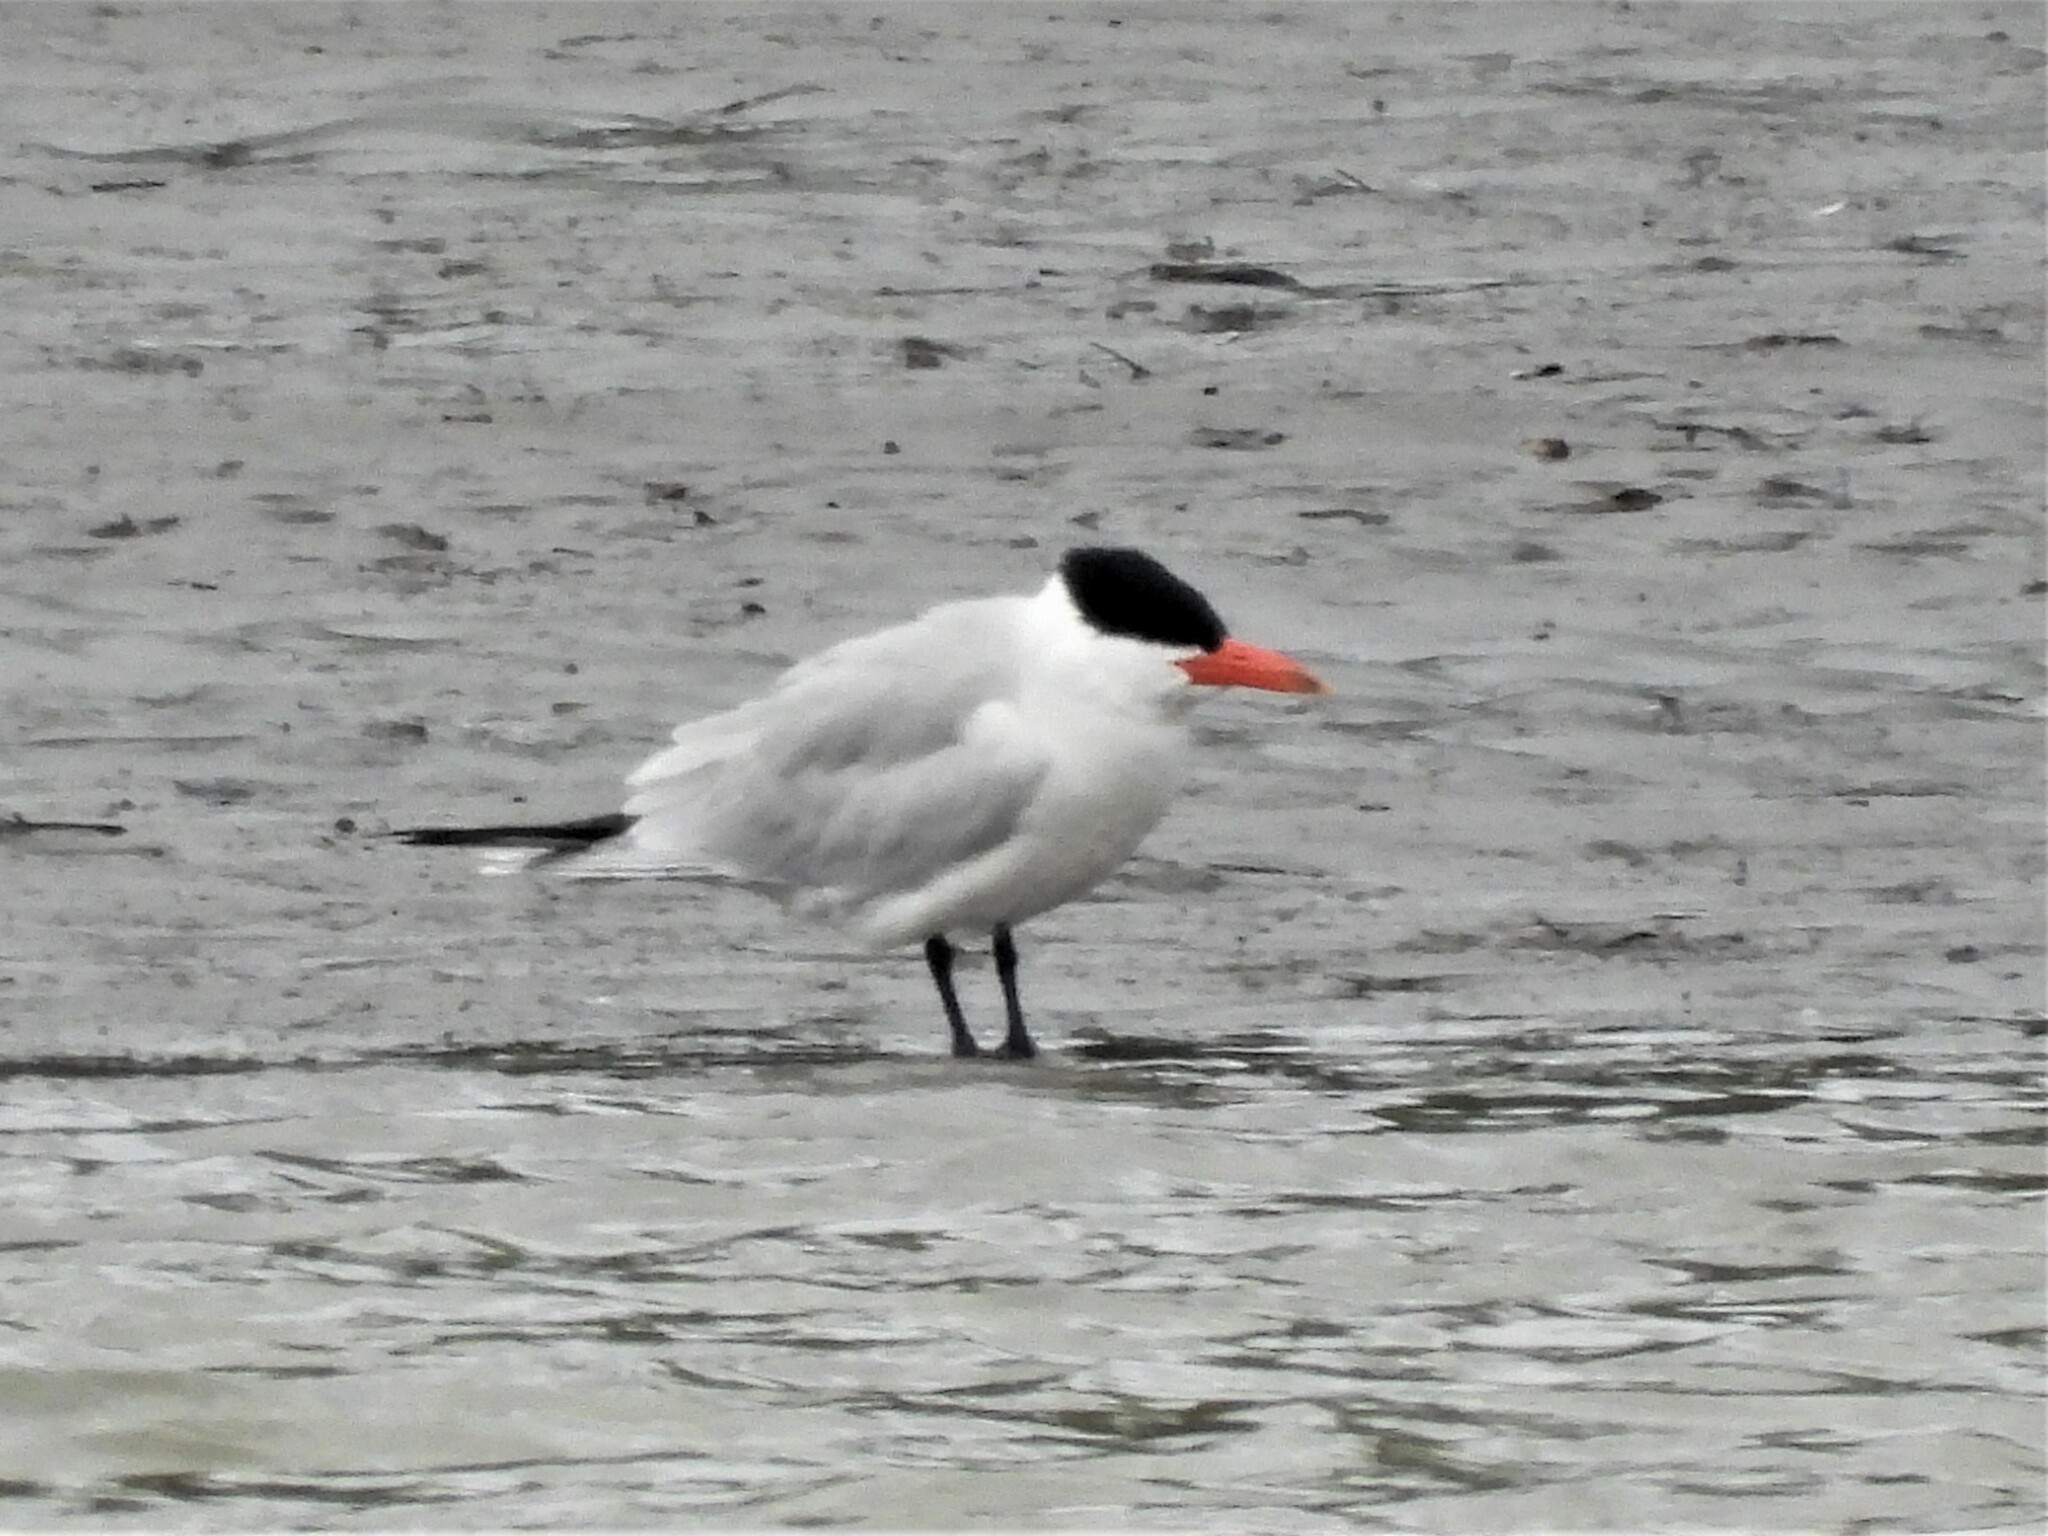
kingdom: Animalia
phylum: Chordata
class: Aves
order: Charadriiformes
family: Laridae
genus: Hydroprogne
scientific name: Hydroprogne caspia
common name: Caspian tern
